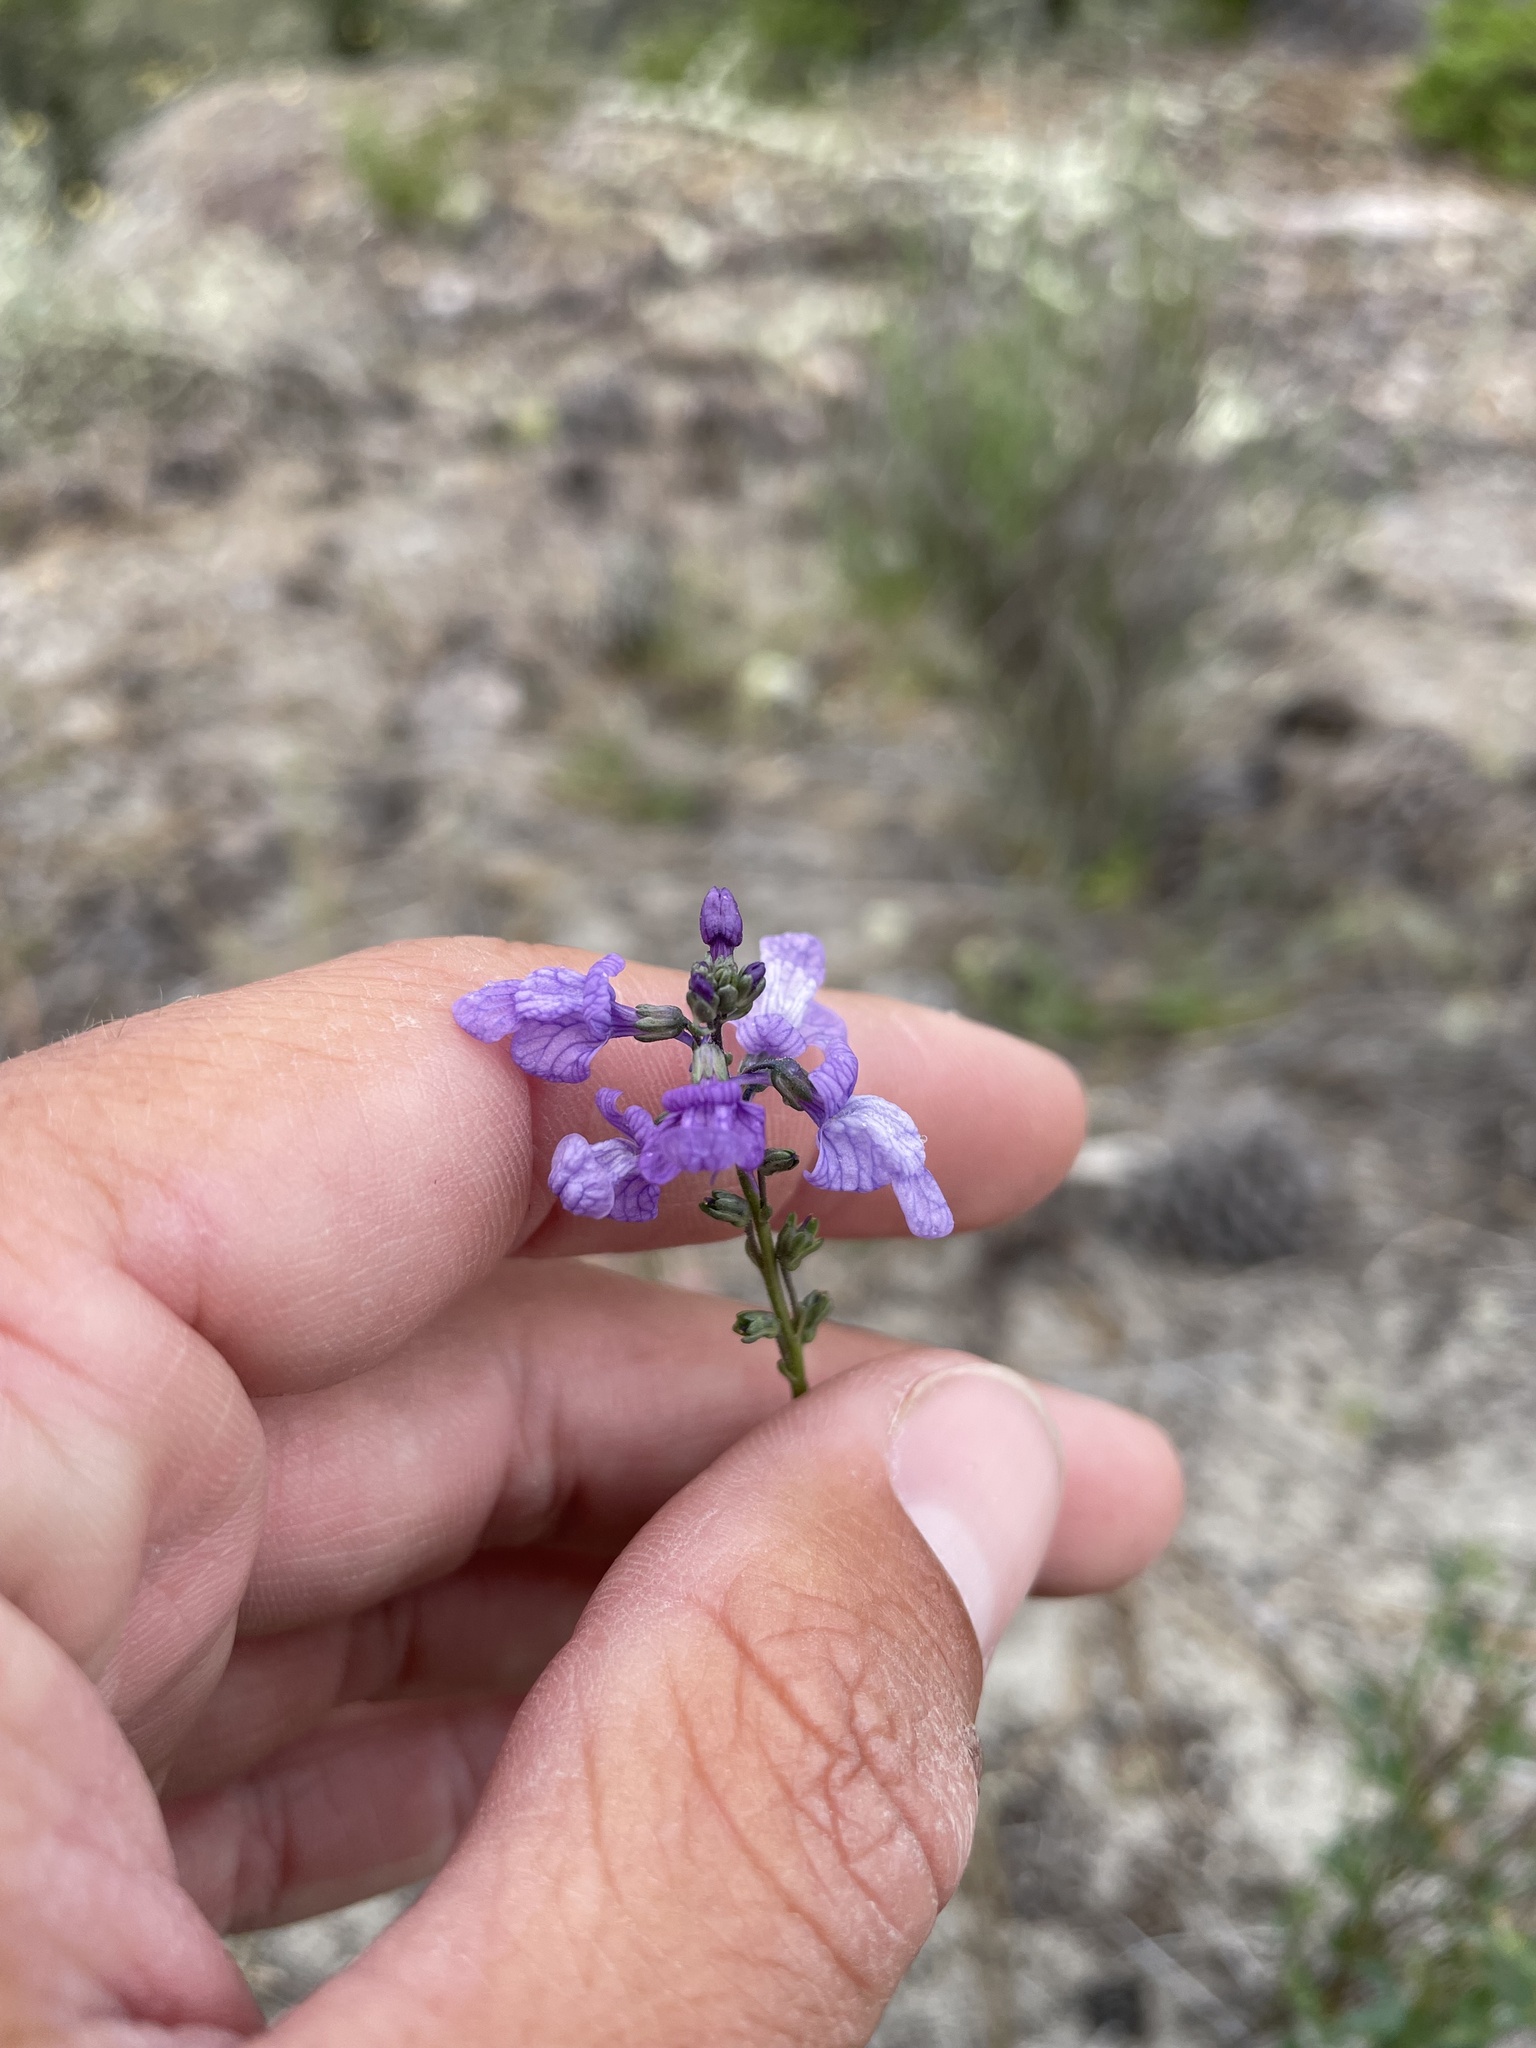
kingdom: Plantae
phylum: Tracheophyta
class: Magnoliopsida
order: Lamiales
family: Plantaginaceae
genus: Nuttallanthus
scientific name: Nuttallanthus texanus
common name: Texas toadflax
